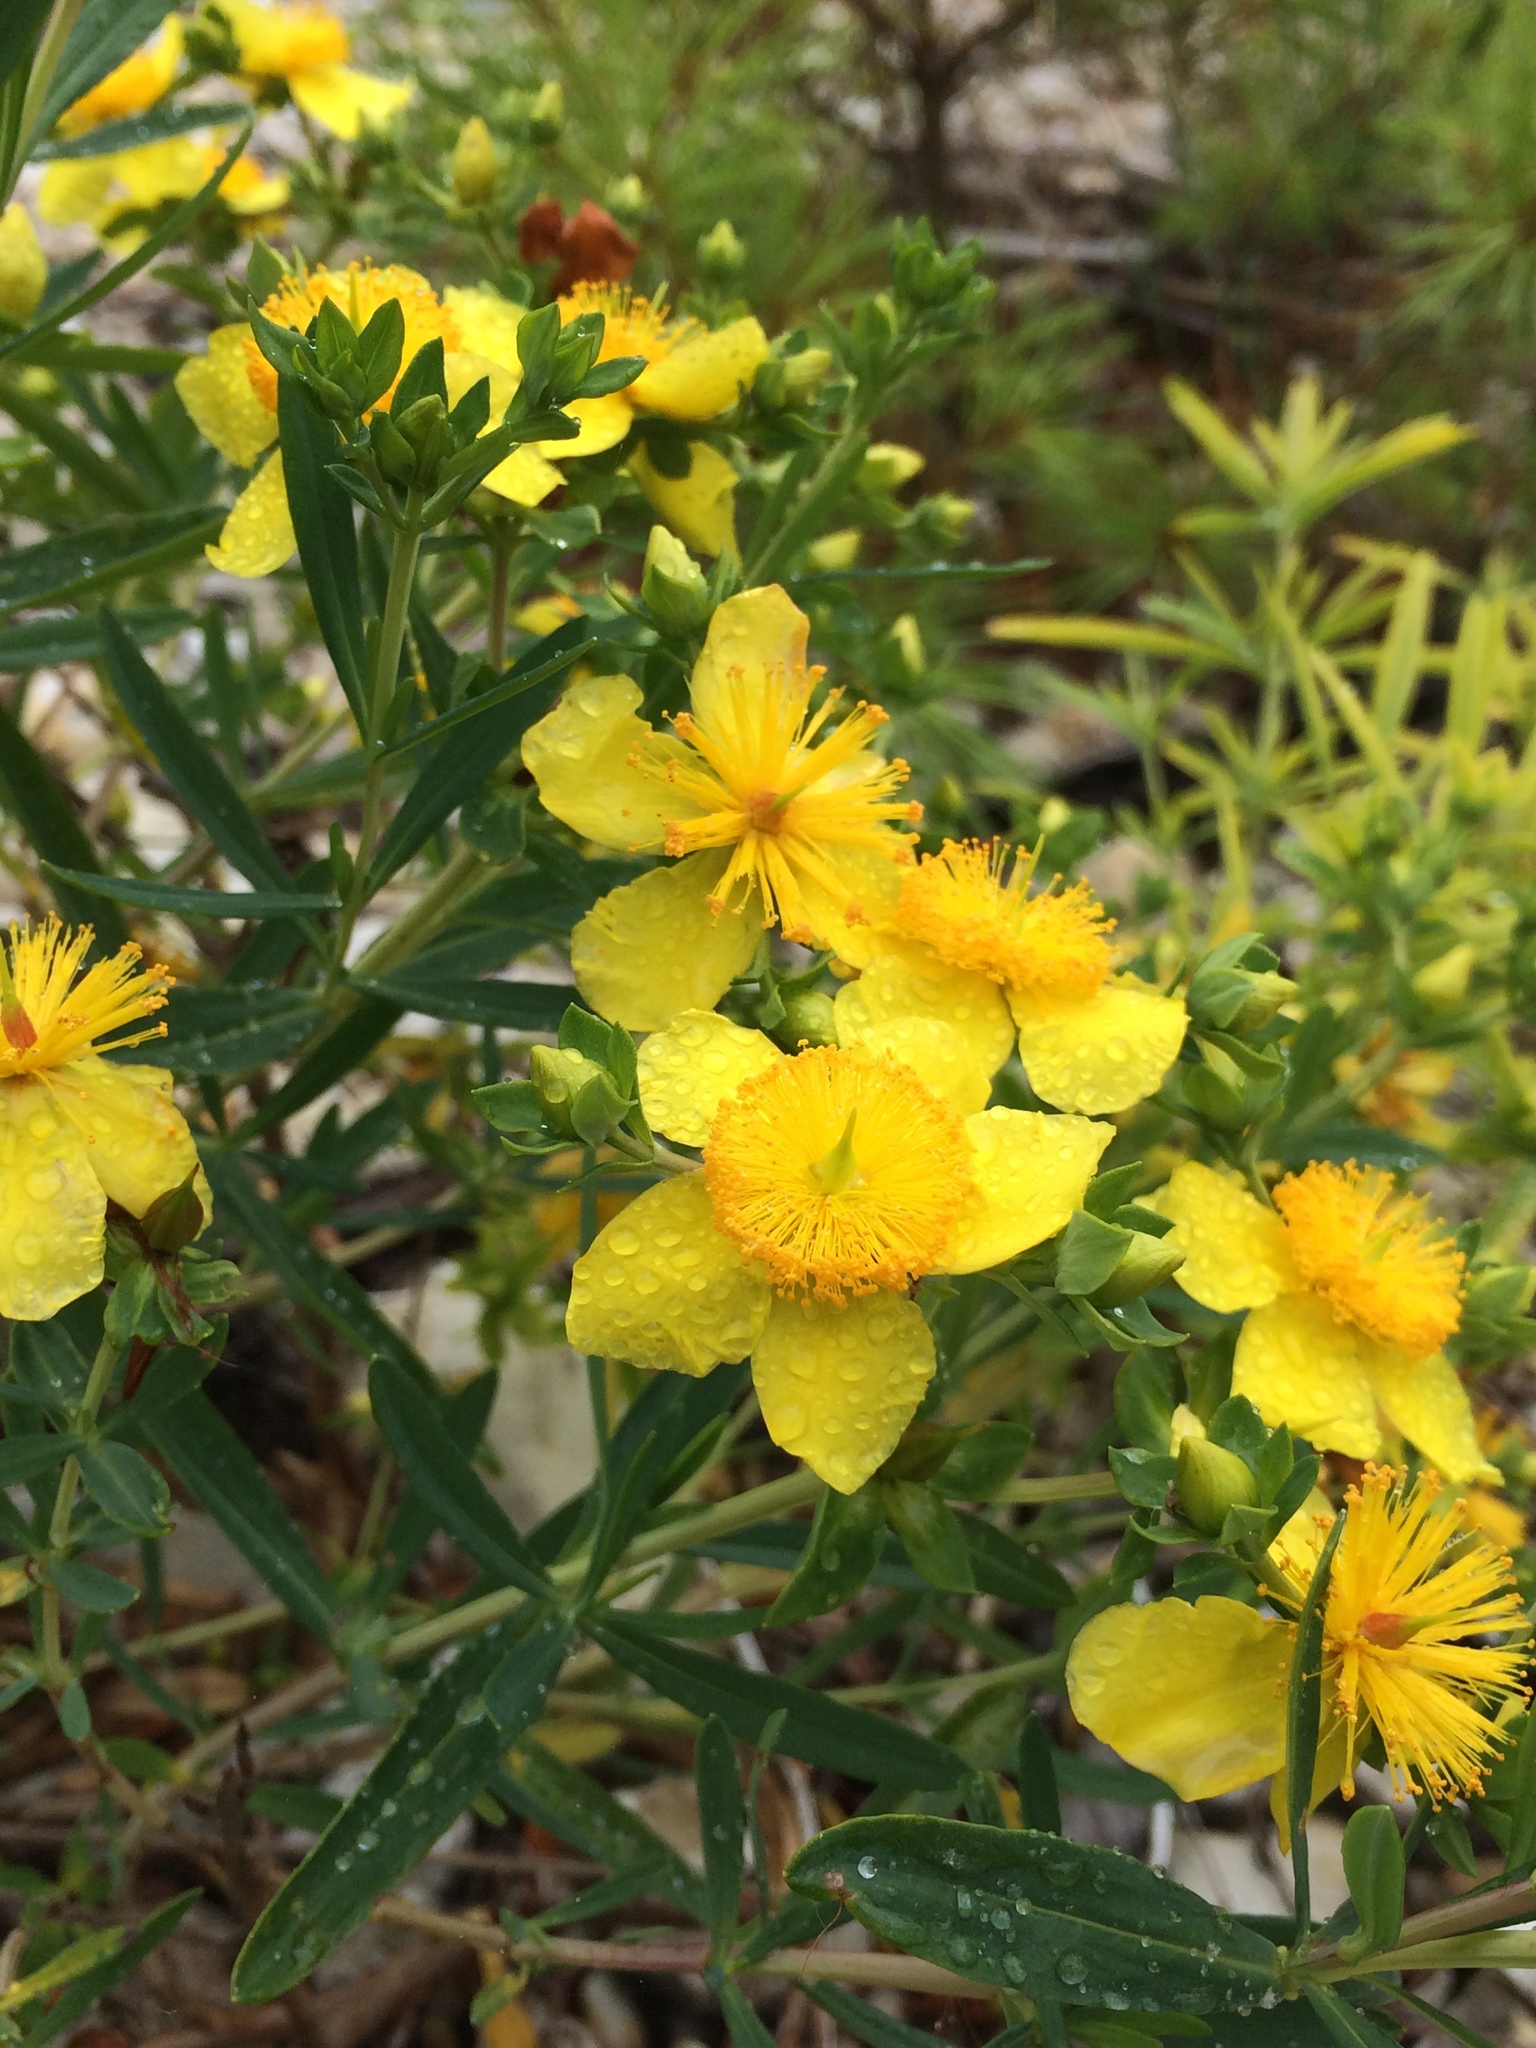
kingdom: Plantae
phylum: Tracheophyta
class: Magnoliopsida
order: Malpighiales
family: Hypericaceae
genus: Hypericum
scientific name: Hypericum kalmianum
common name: Kalm's st. john's-wort
